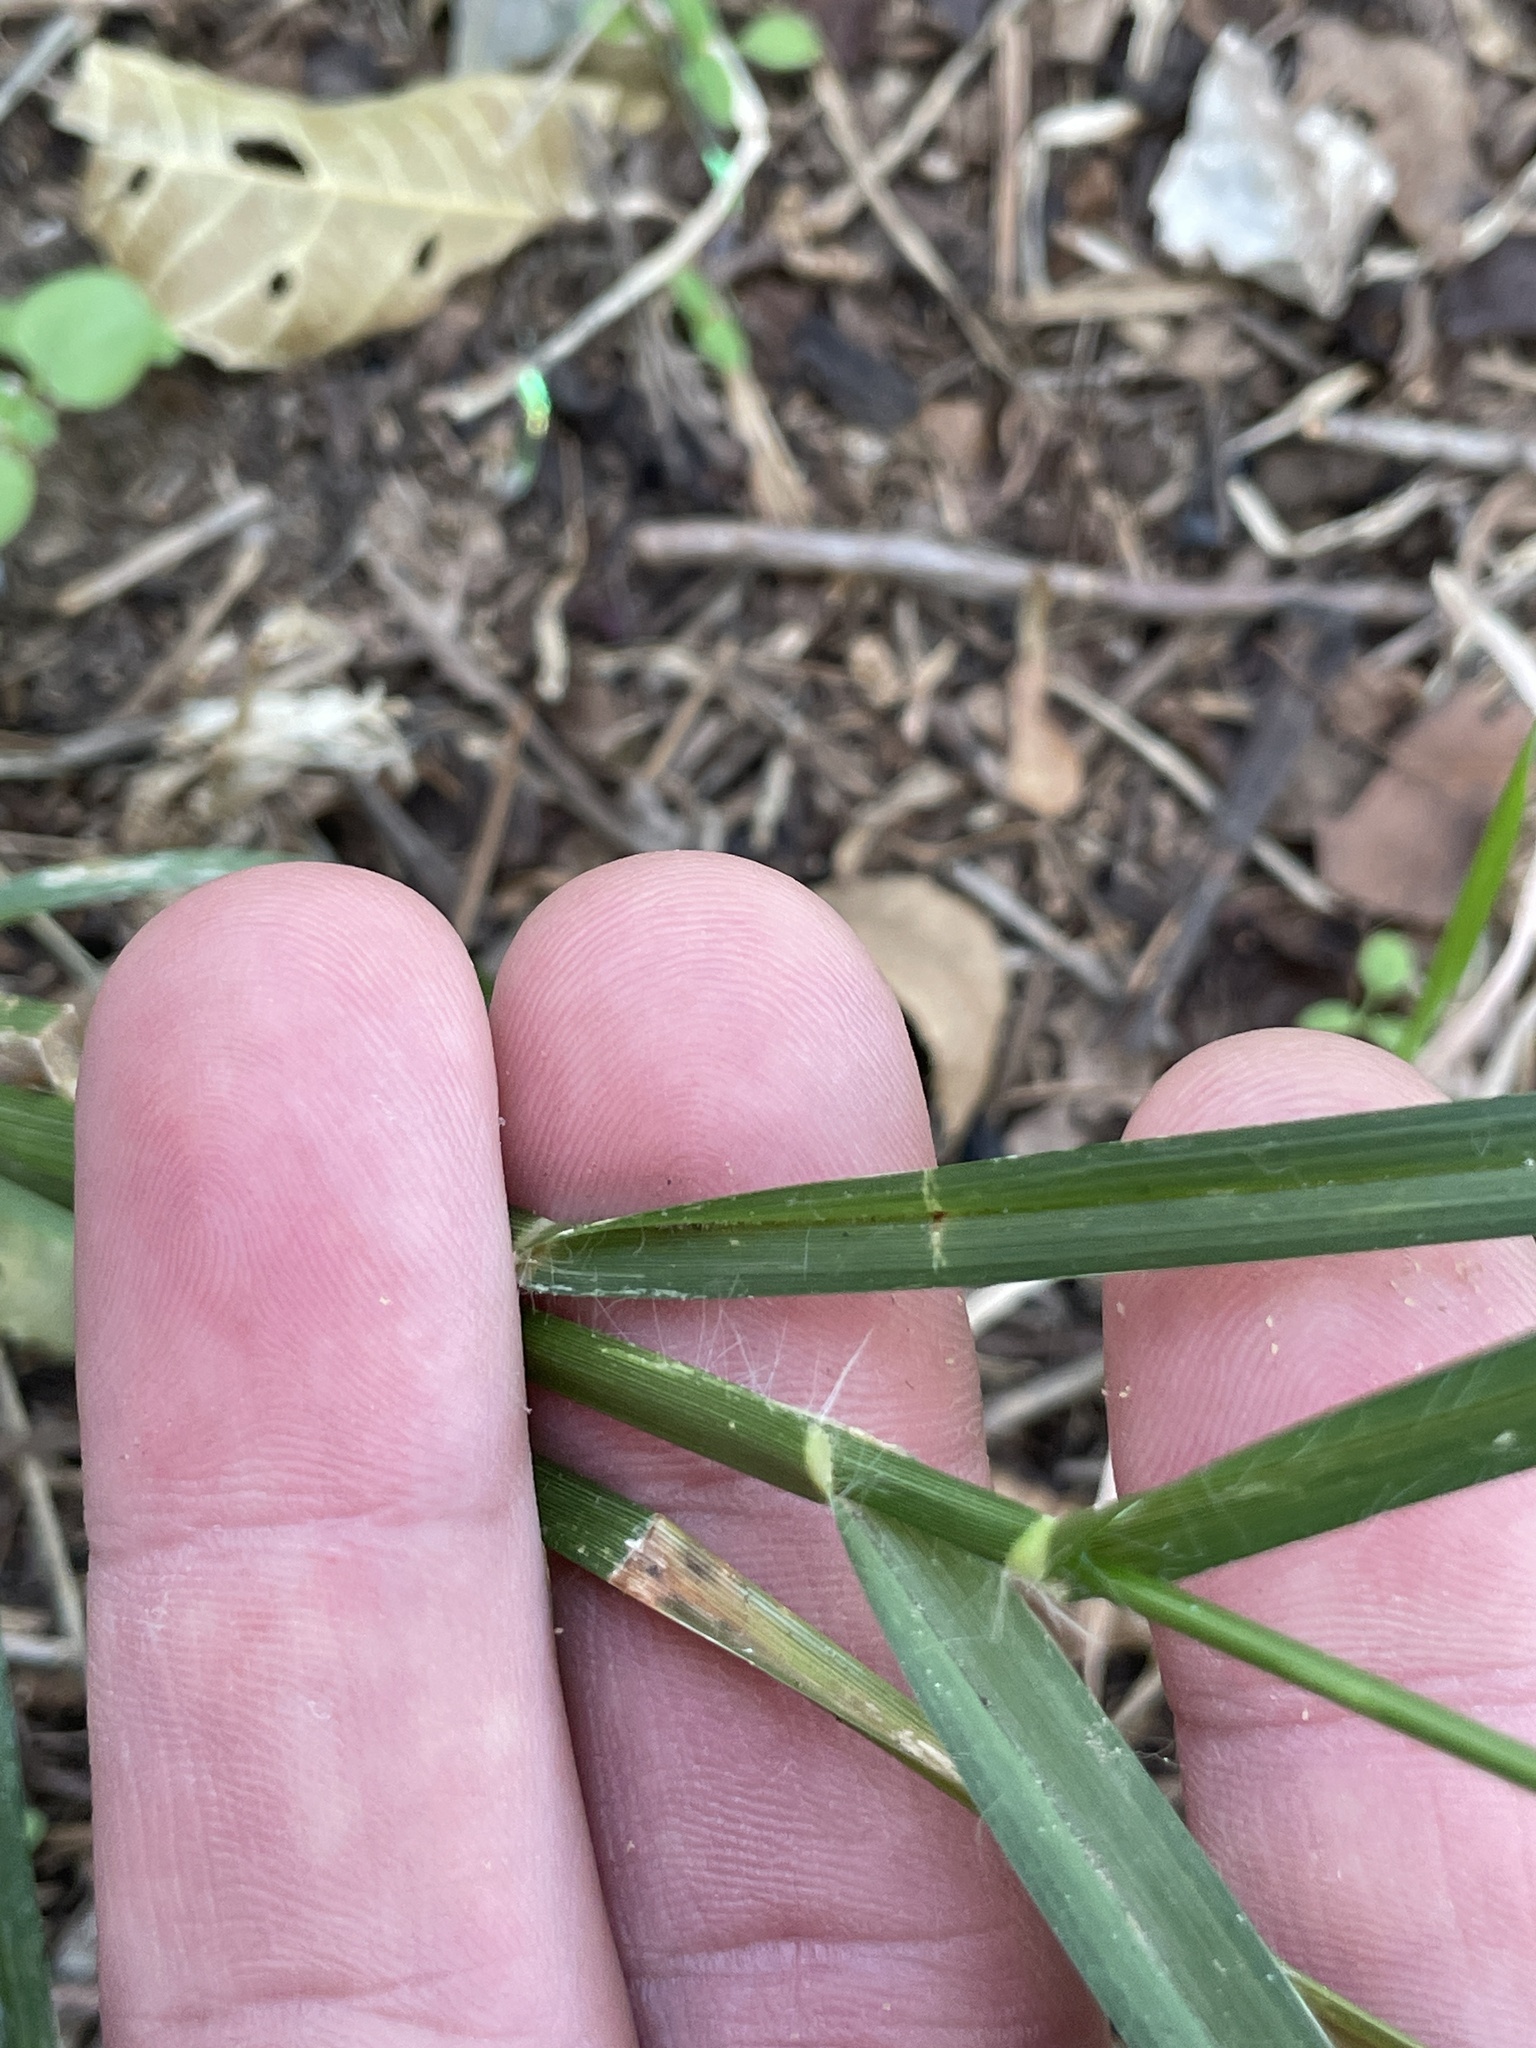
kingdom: Plantae
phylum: Tracheophyta
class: Liliopsida
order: Poales
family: Poaceae
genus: Eleusine
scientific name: Eleusine indica
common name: Yard-grass
